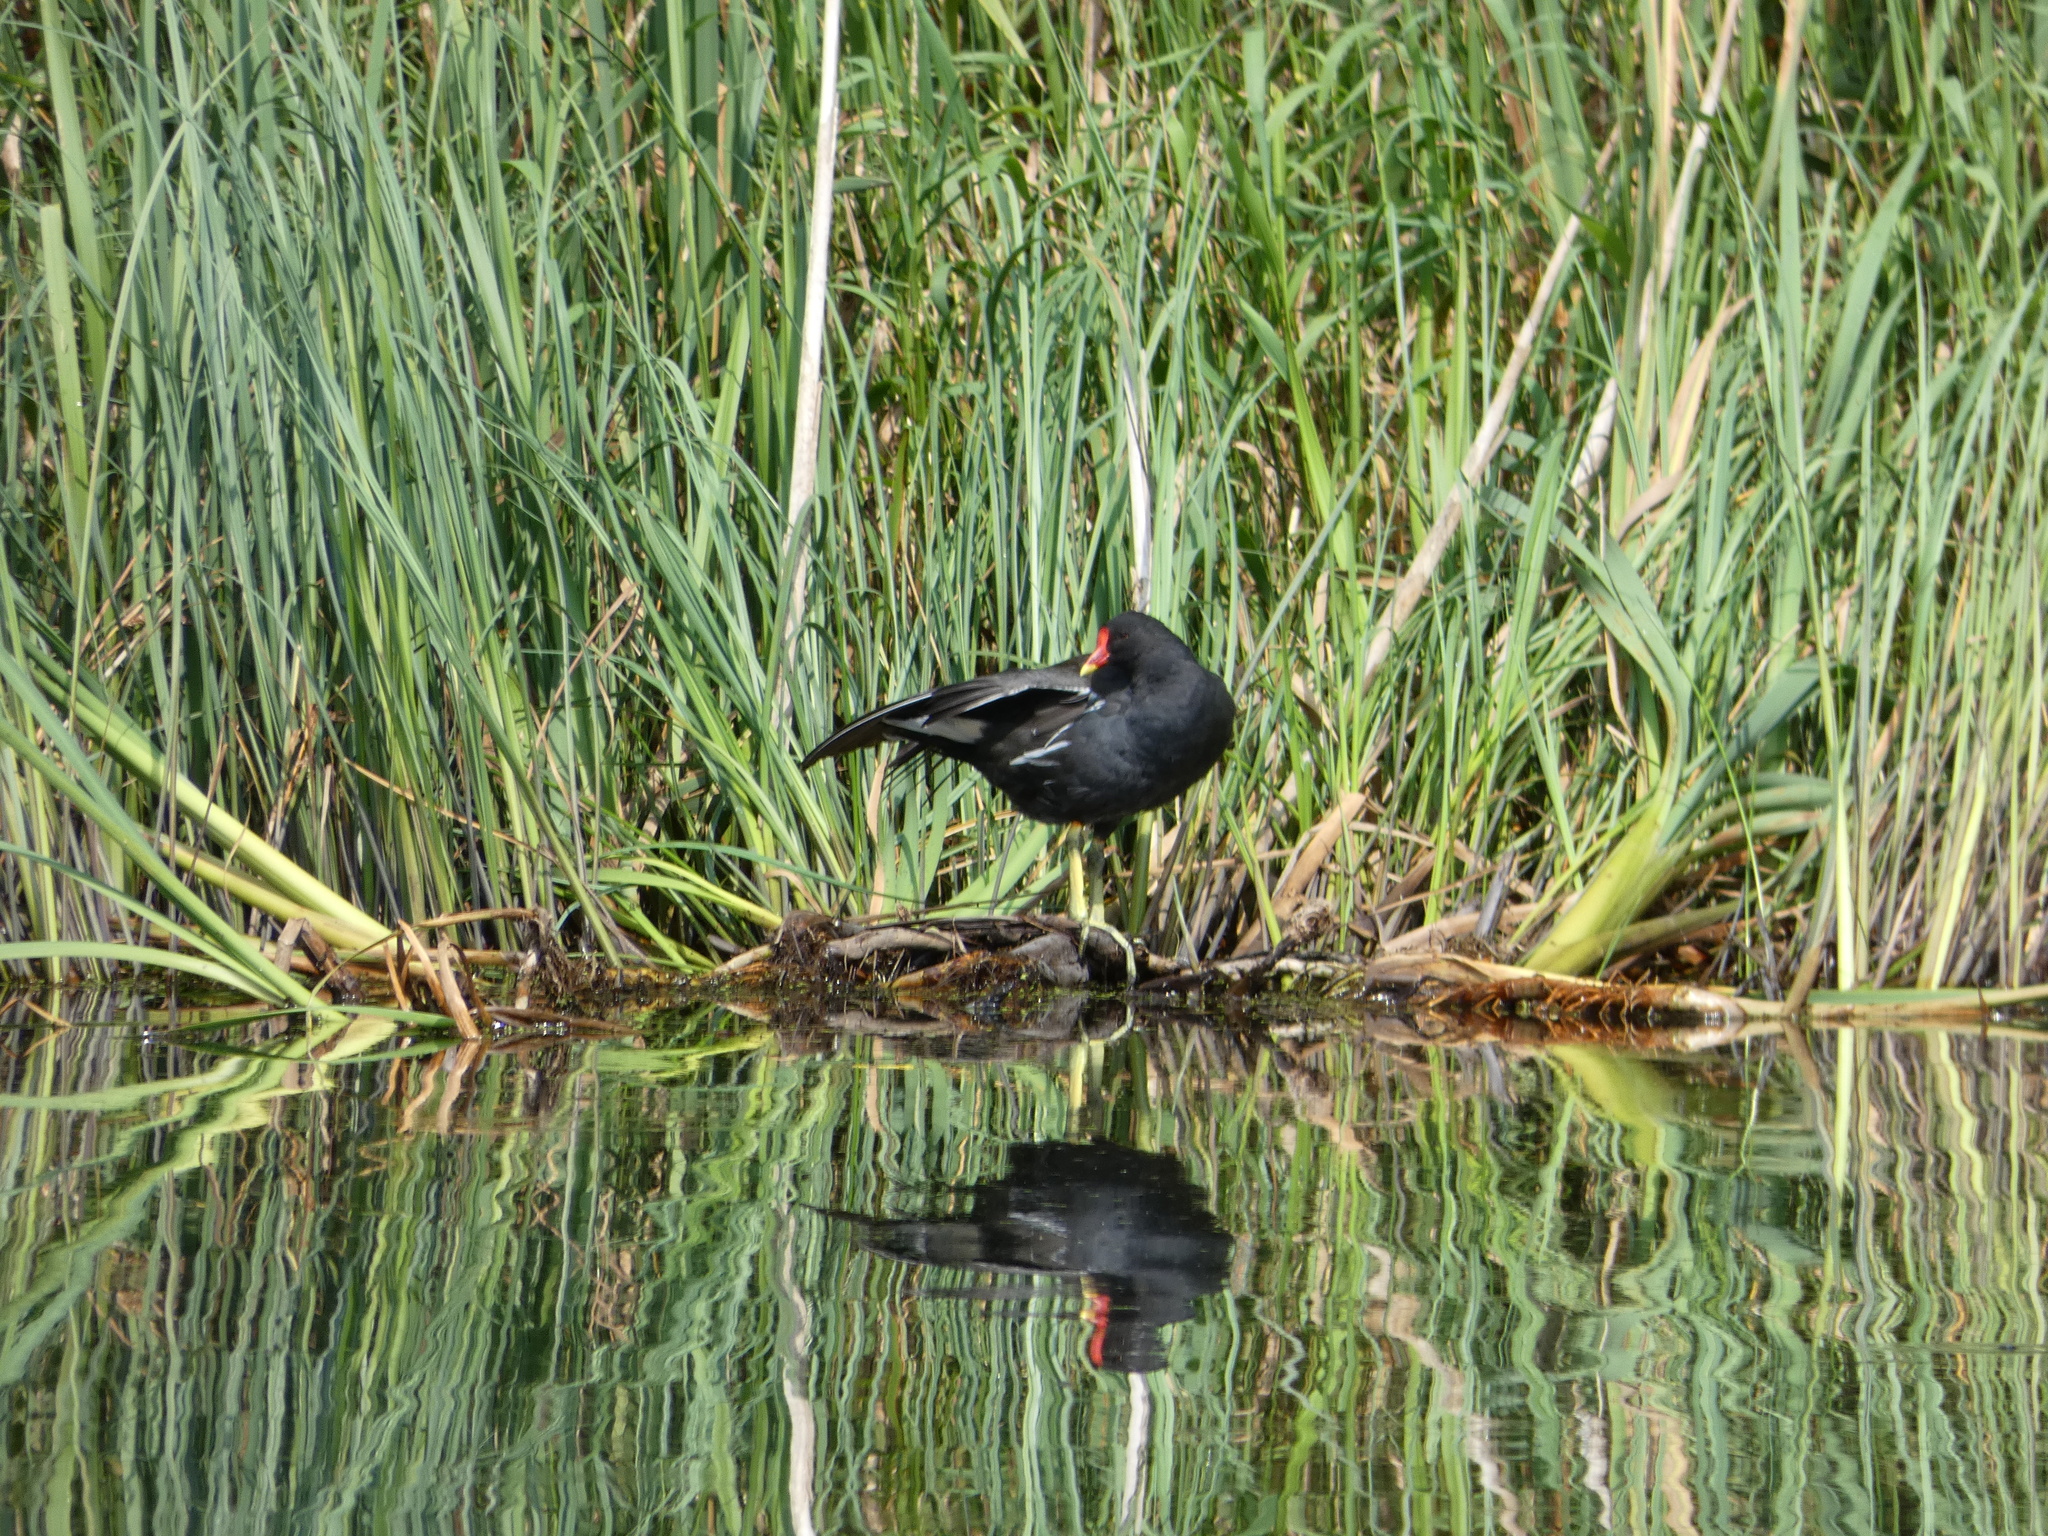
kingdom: Animalia
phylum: Chordata
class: Aves
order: Gruiformes
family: Rallidae
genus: Gallinula
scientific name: Gallinula chloropus
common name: Common moorhen
